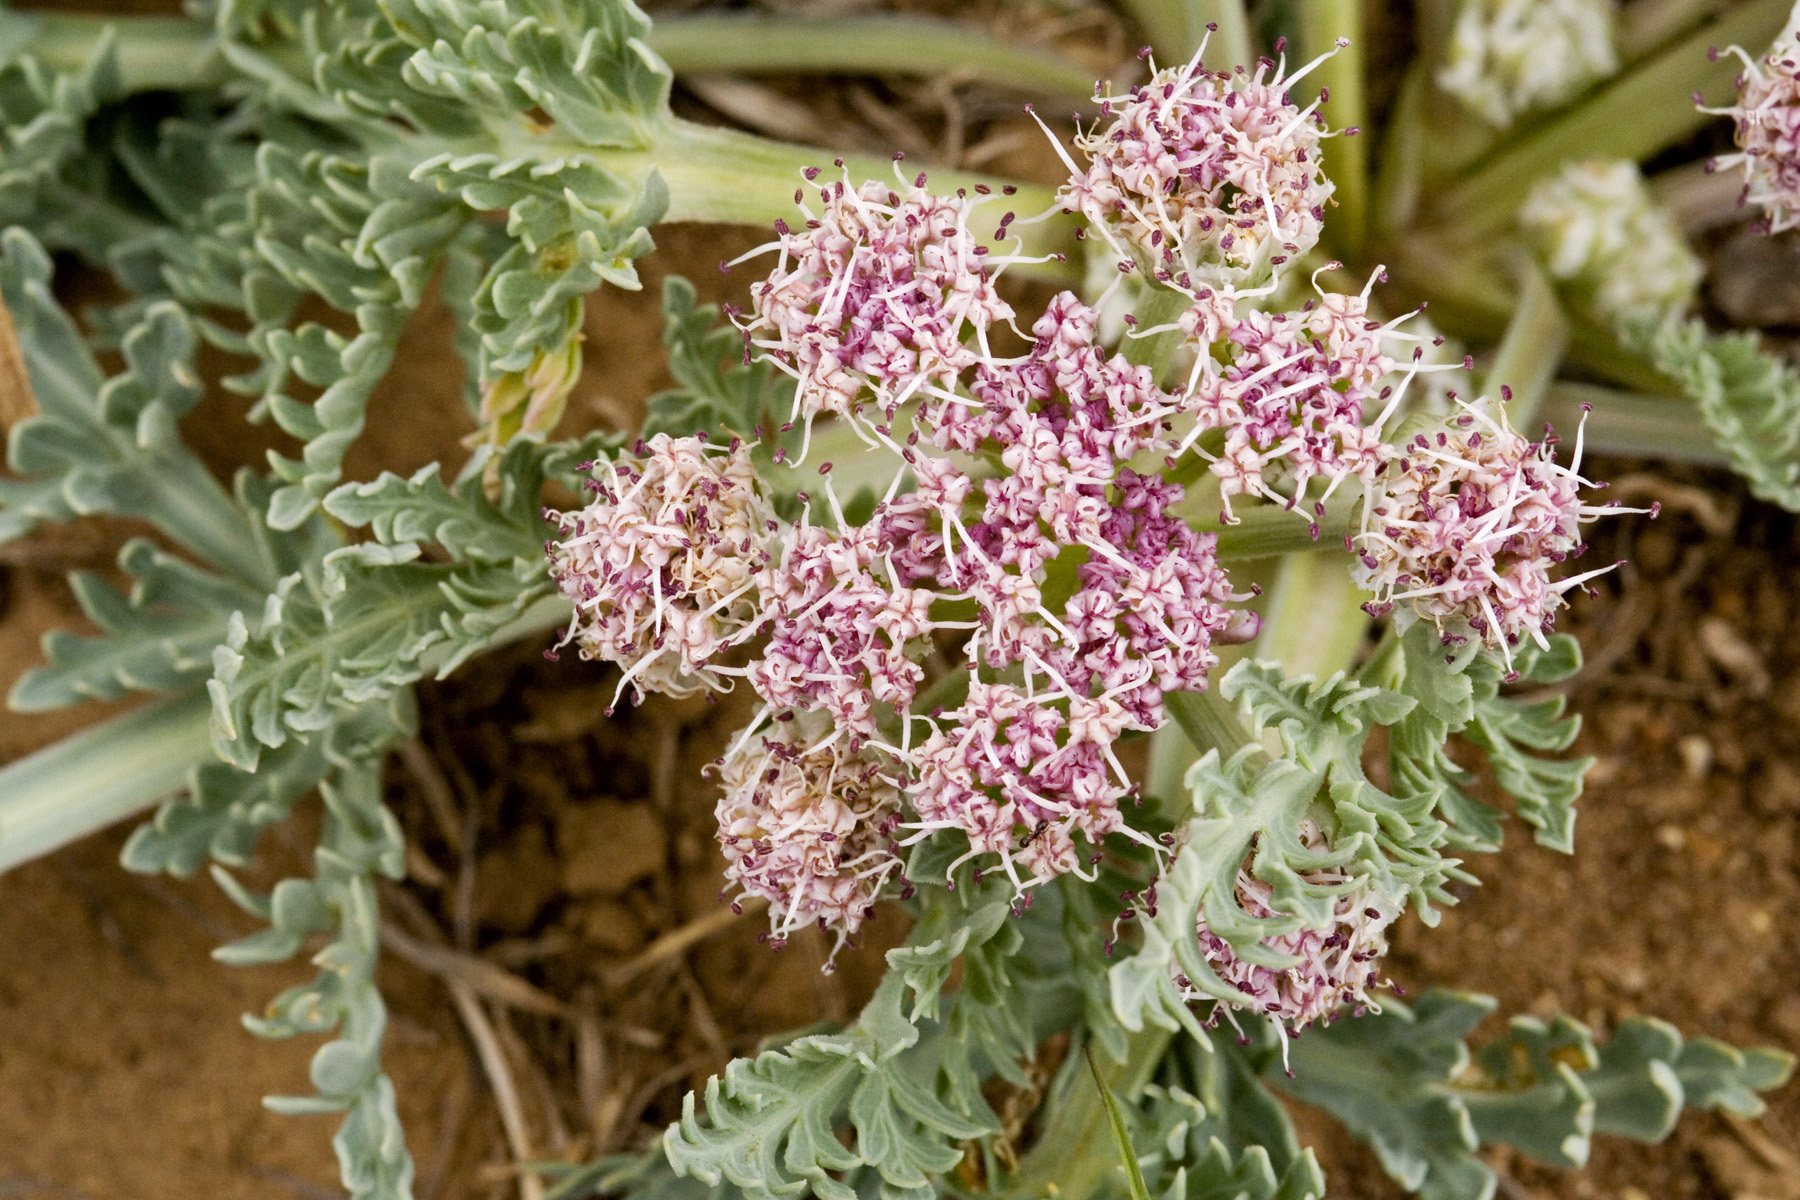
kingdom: Plantae
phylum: Tracheophyta
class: Magnoliopsida
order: Apiales
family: Apiaceae
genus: Vesper
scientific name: Vesper macrorhizus
